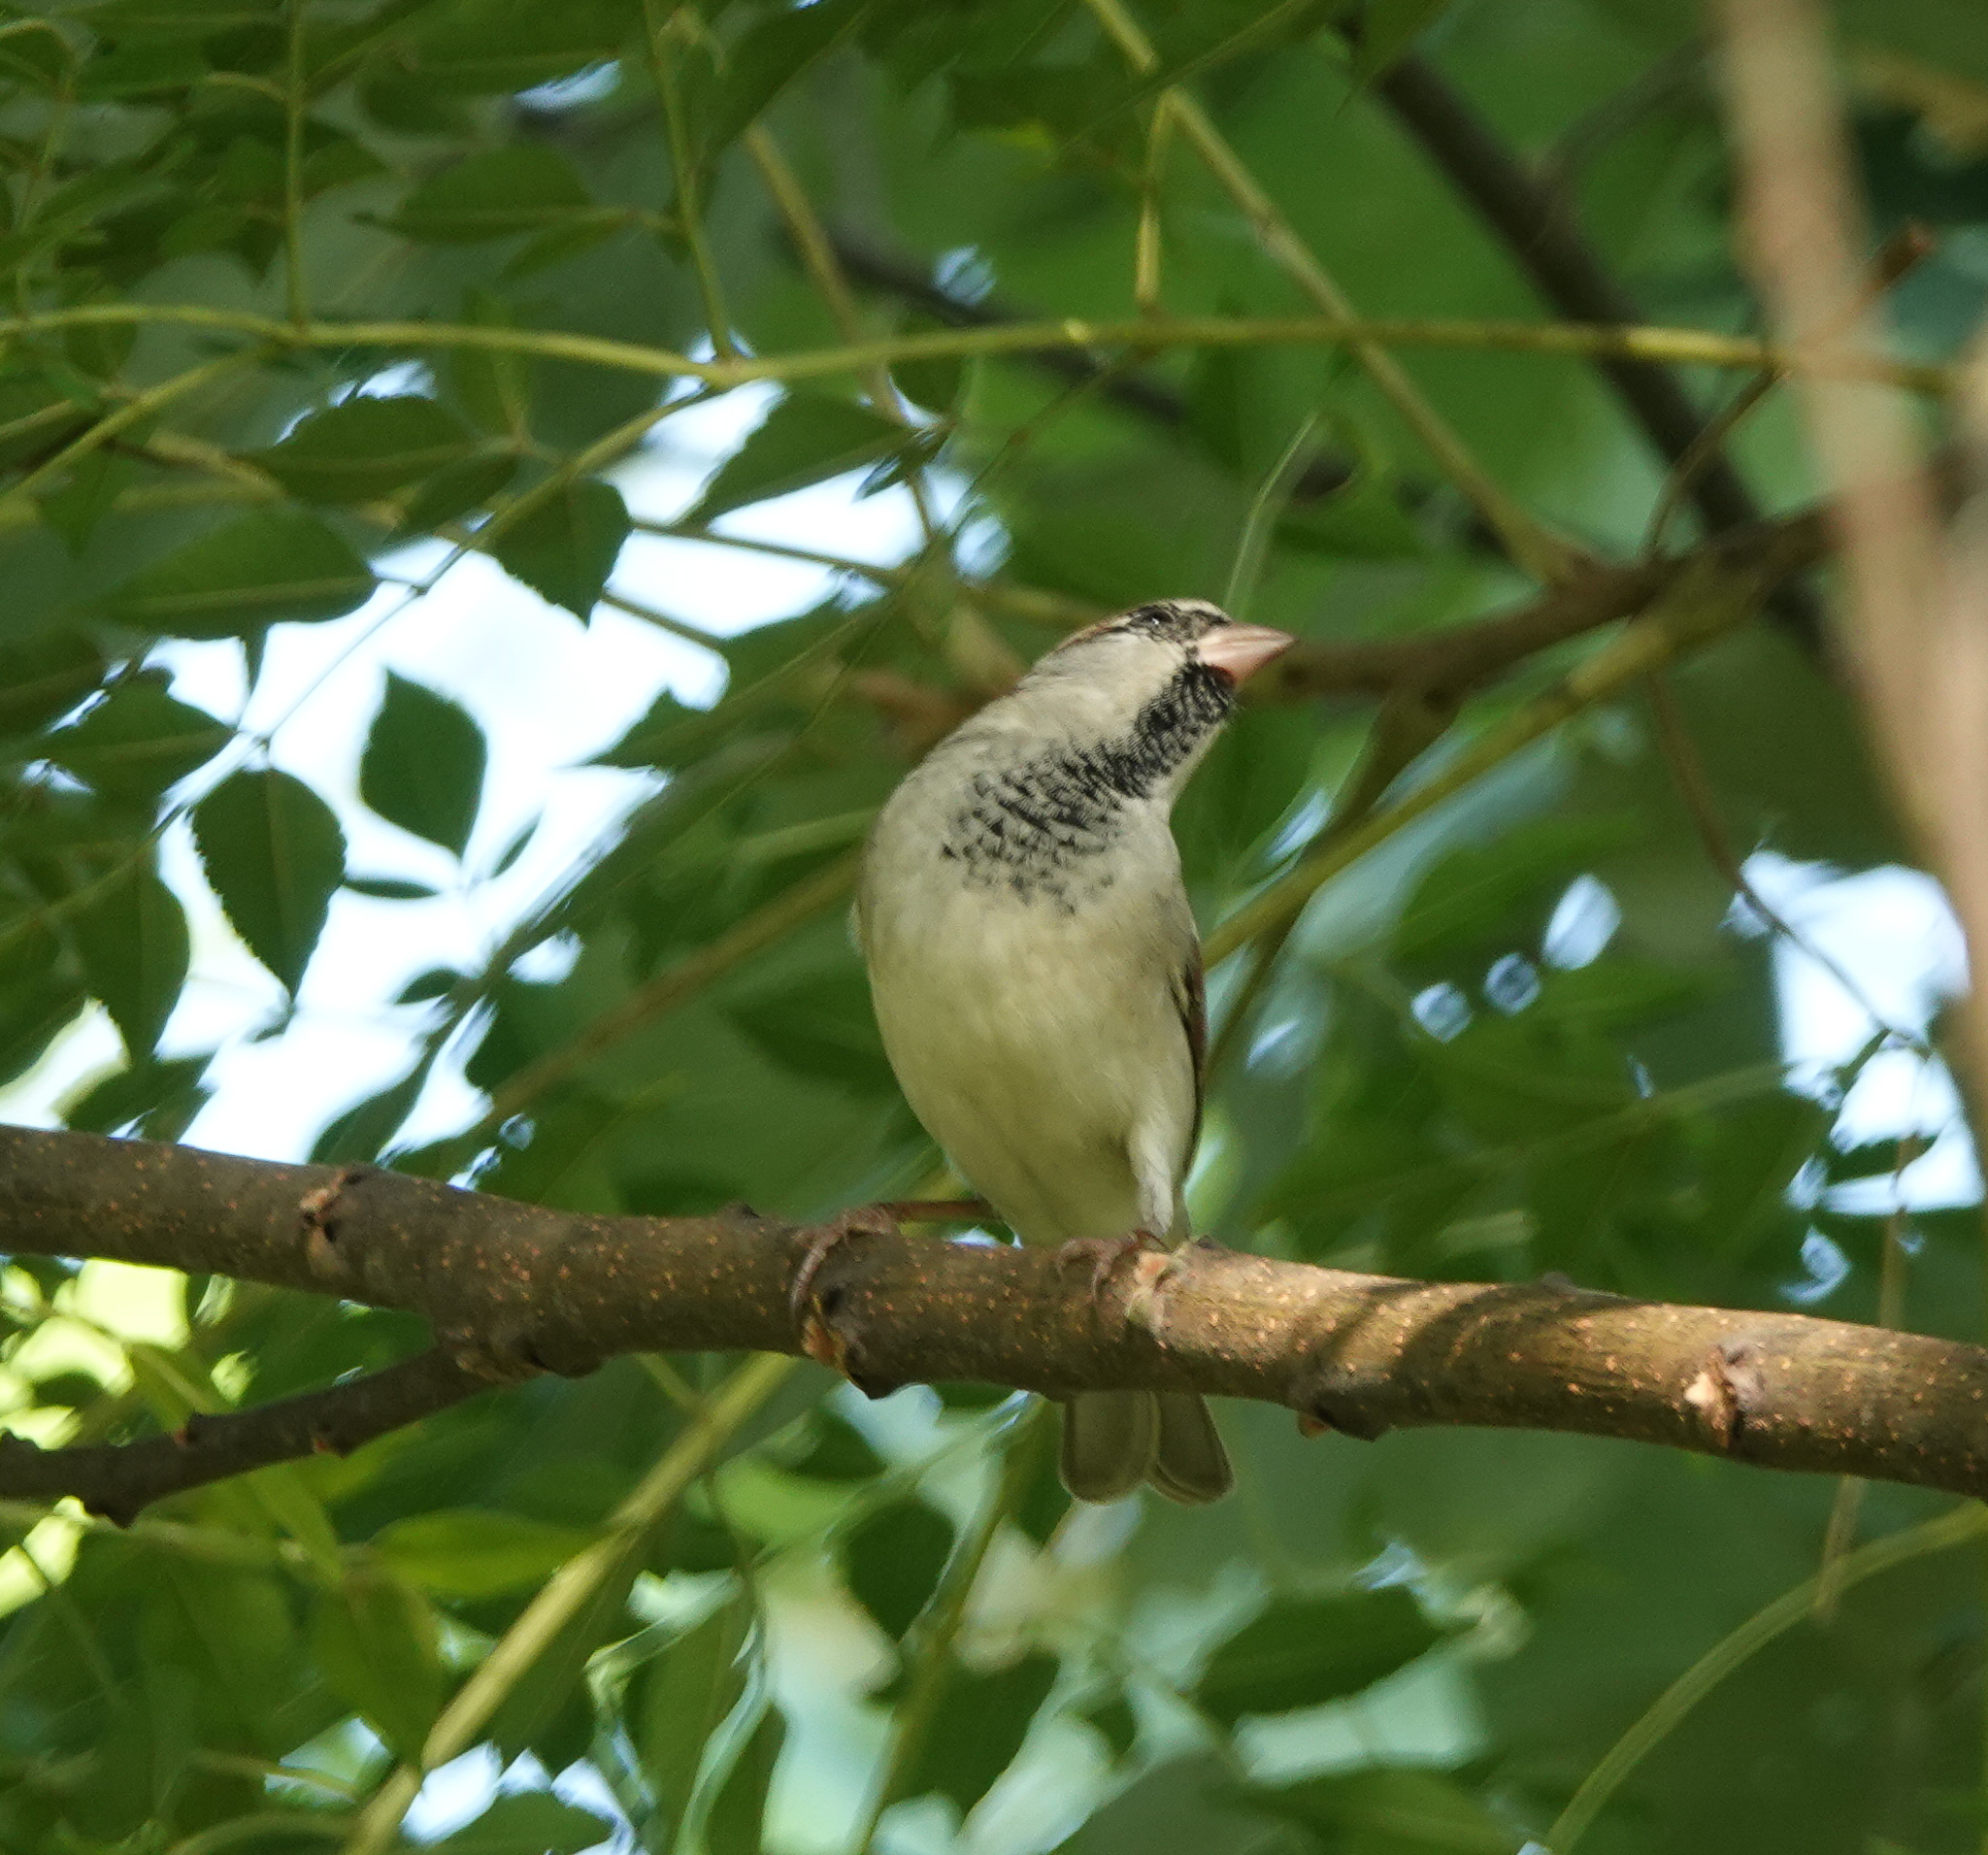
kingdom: Animalia
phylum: Chordata
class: Aves
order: Passeriformes
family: Passeridae
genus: Passer
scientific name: Passer domesticus
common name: House sparrow
